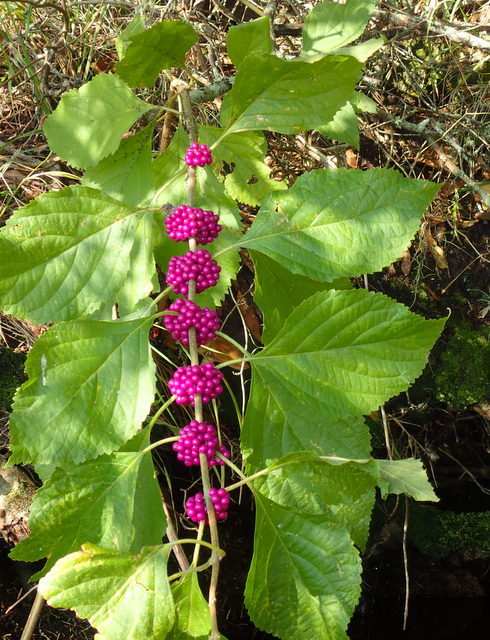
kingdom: Plantae
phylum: Tracheophyta
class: Magnoliopsida
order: Lamiales
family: Lamiaceae
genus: Callicarpa
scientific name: Callicarpa americana
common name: American beautyberry
